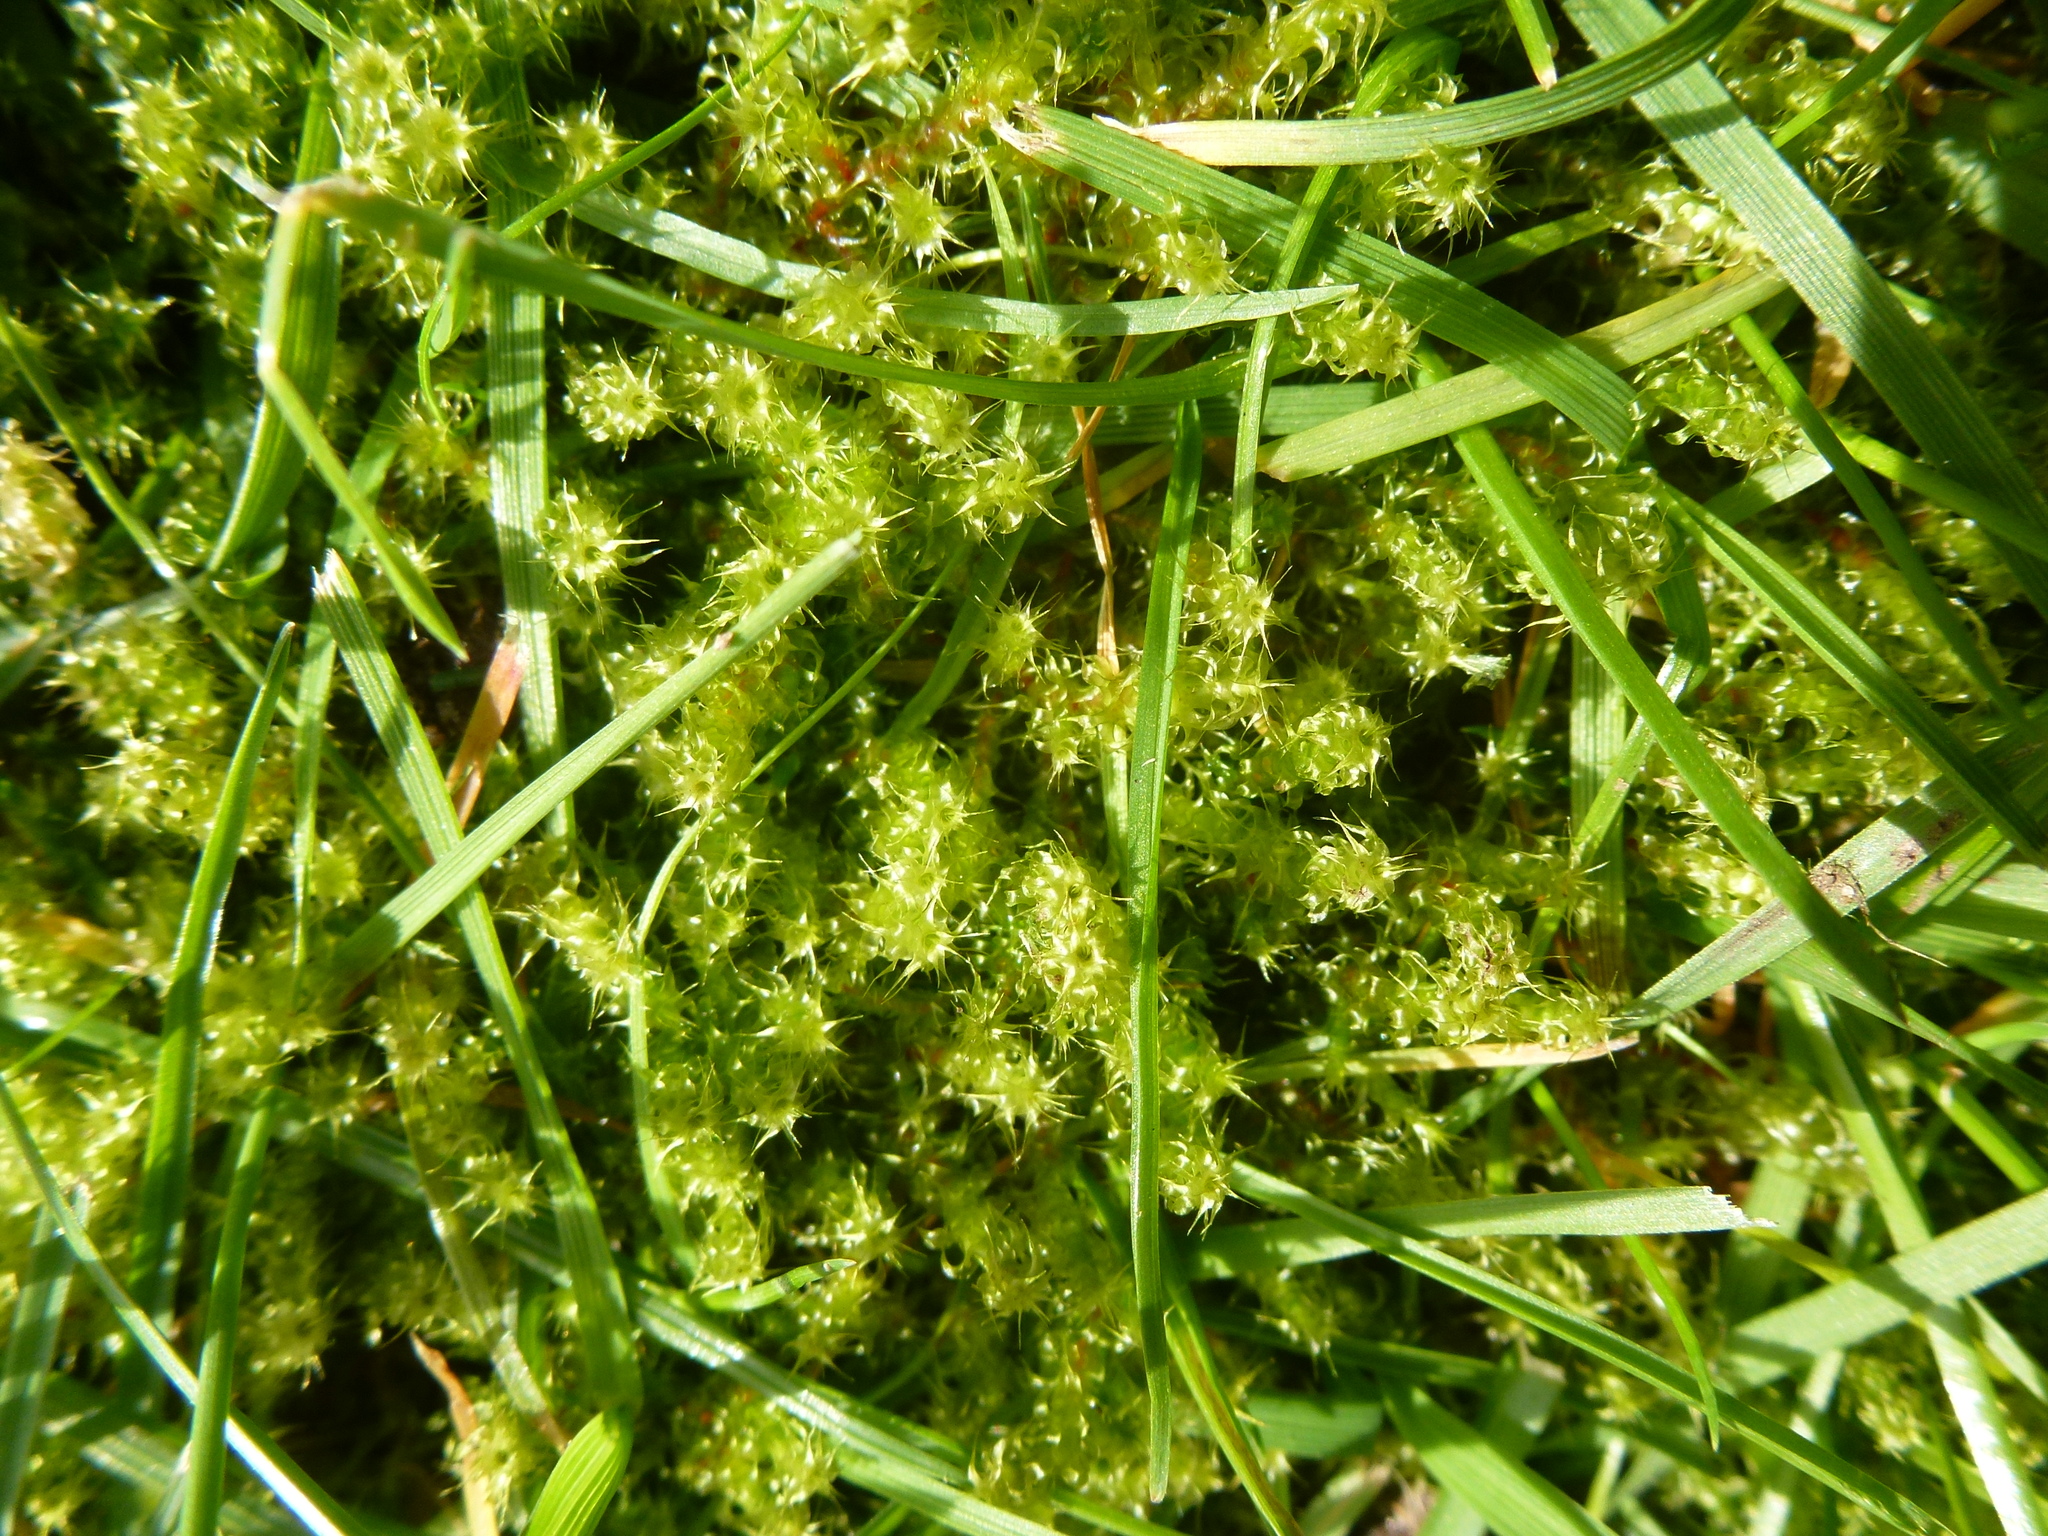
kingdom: Plantae
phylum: Bryophyta
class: Bryopsida
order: Hypnales
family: Hylocomiaceae
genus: Rhytidiadelphus
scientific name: Rhytidiadelphus squarrosus
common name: Springy turf-moss
